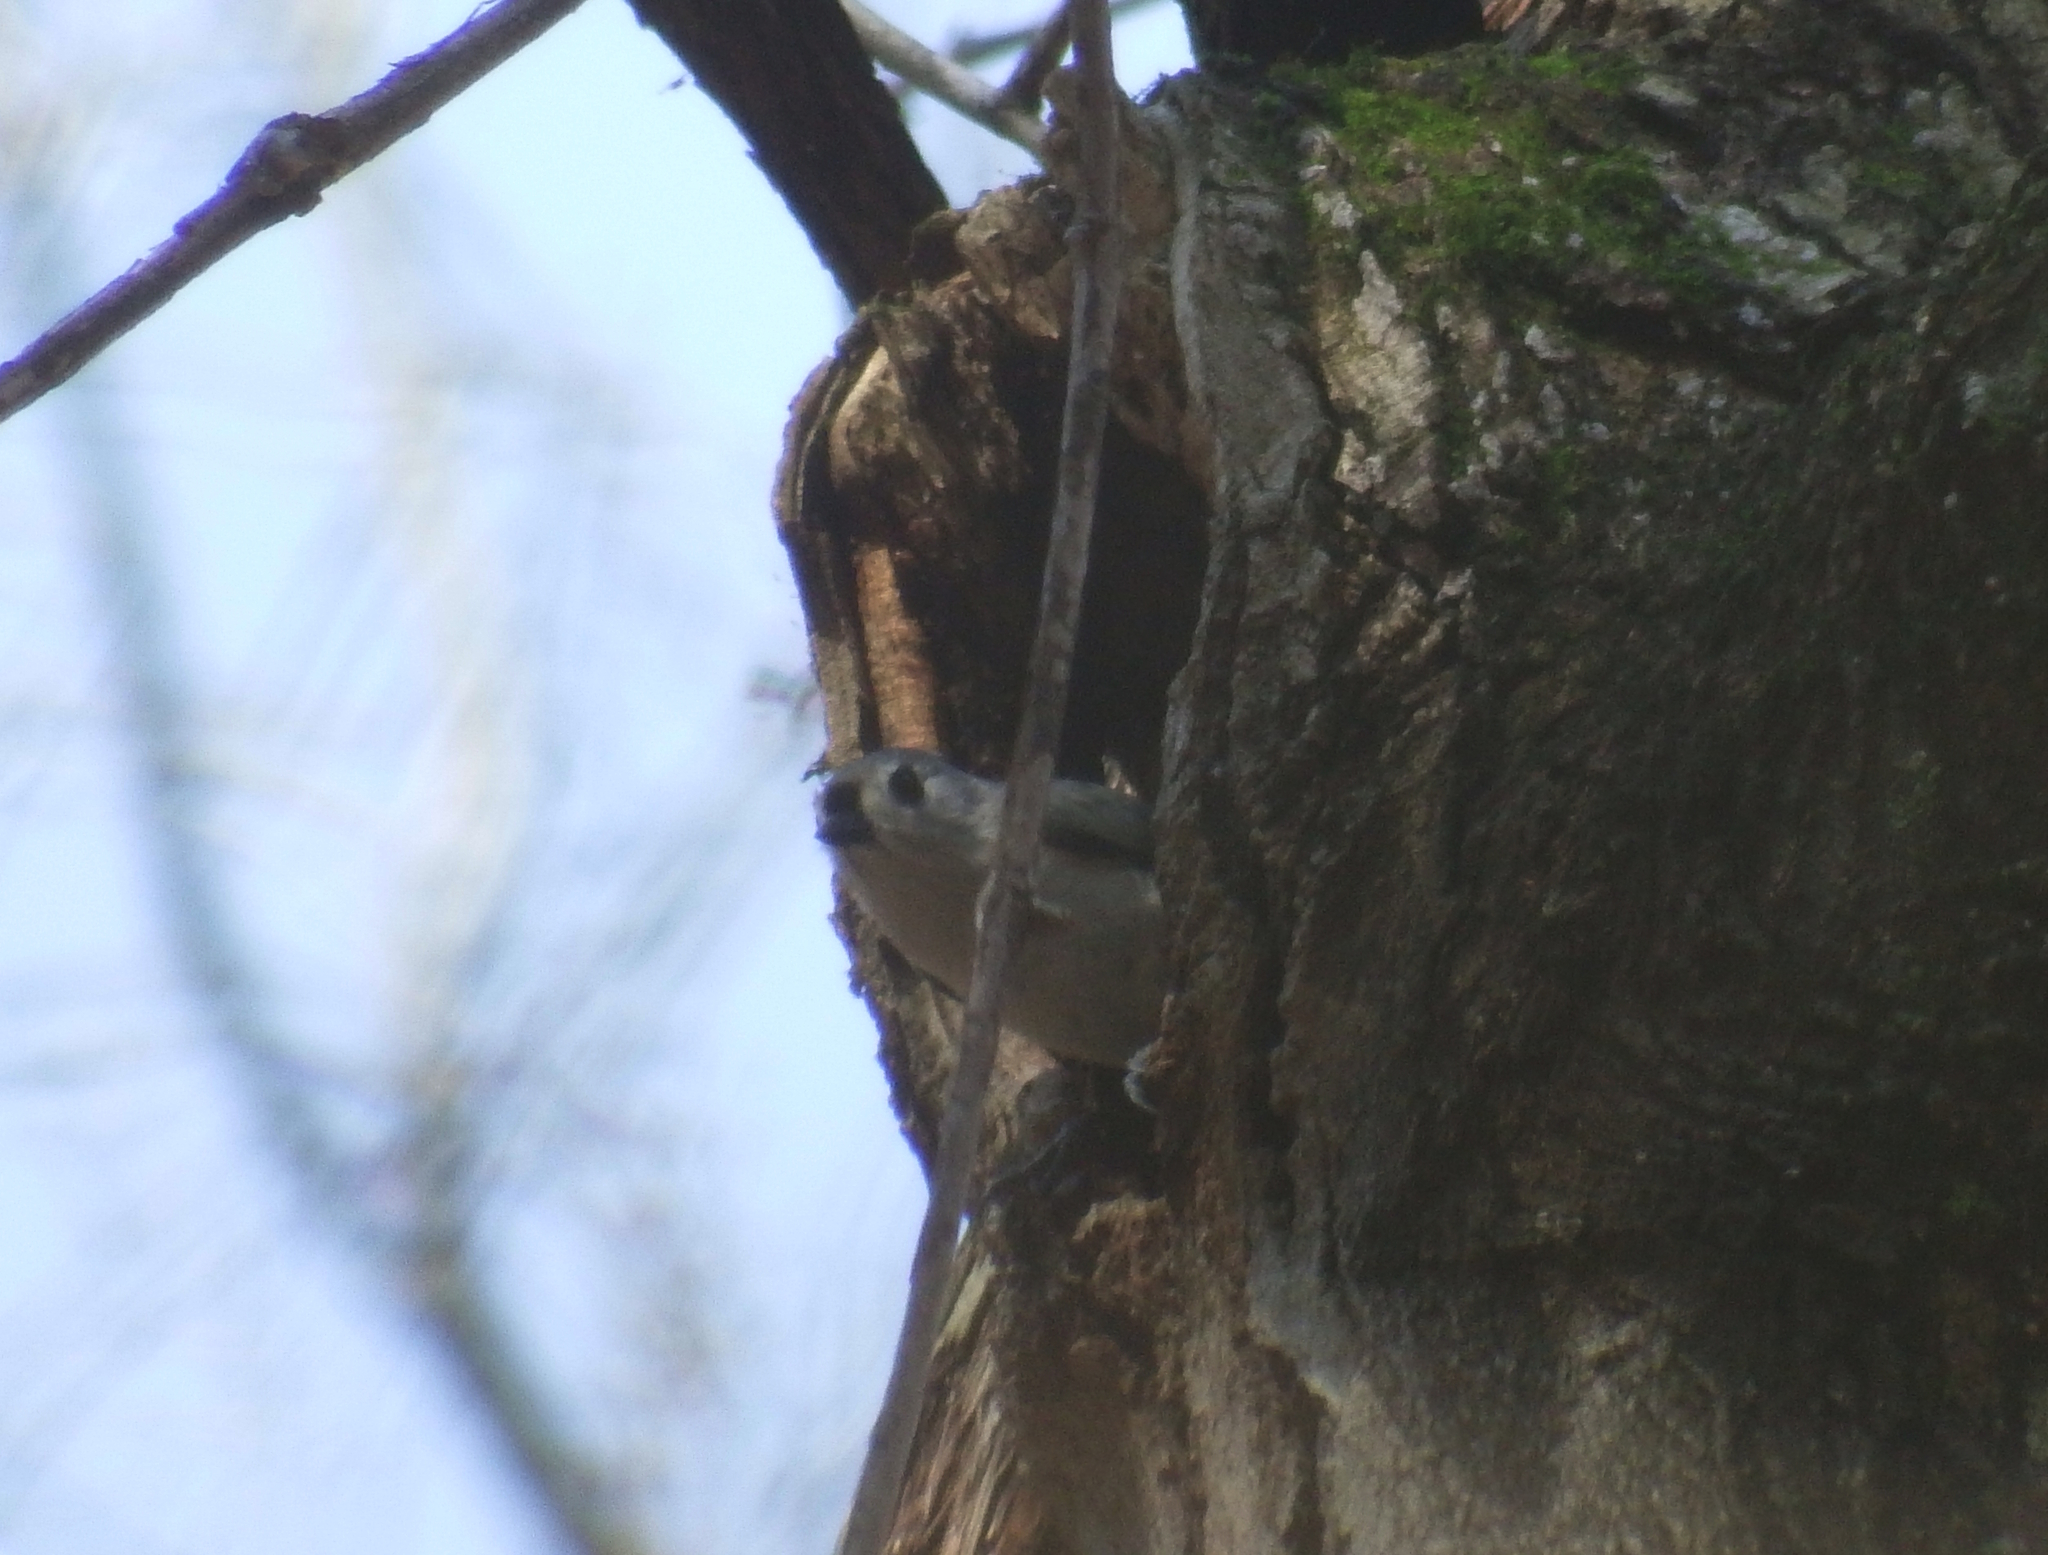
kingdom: Animalia
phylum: Chordata
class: Aves
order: Passeriformes
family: Paridae
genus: Baeolophus
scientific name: Baeolophus bicolor
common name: Tufted titmouse
